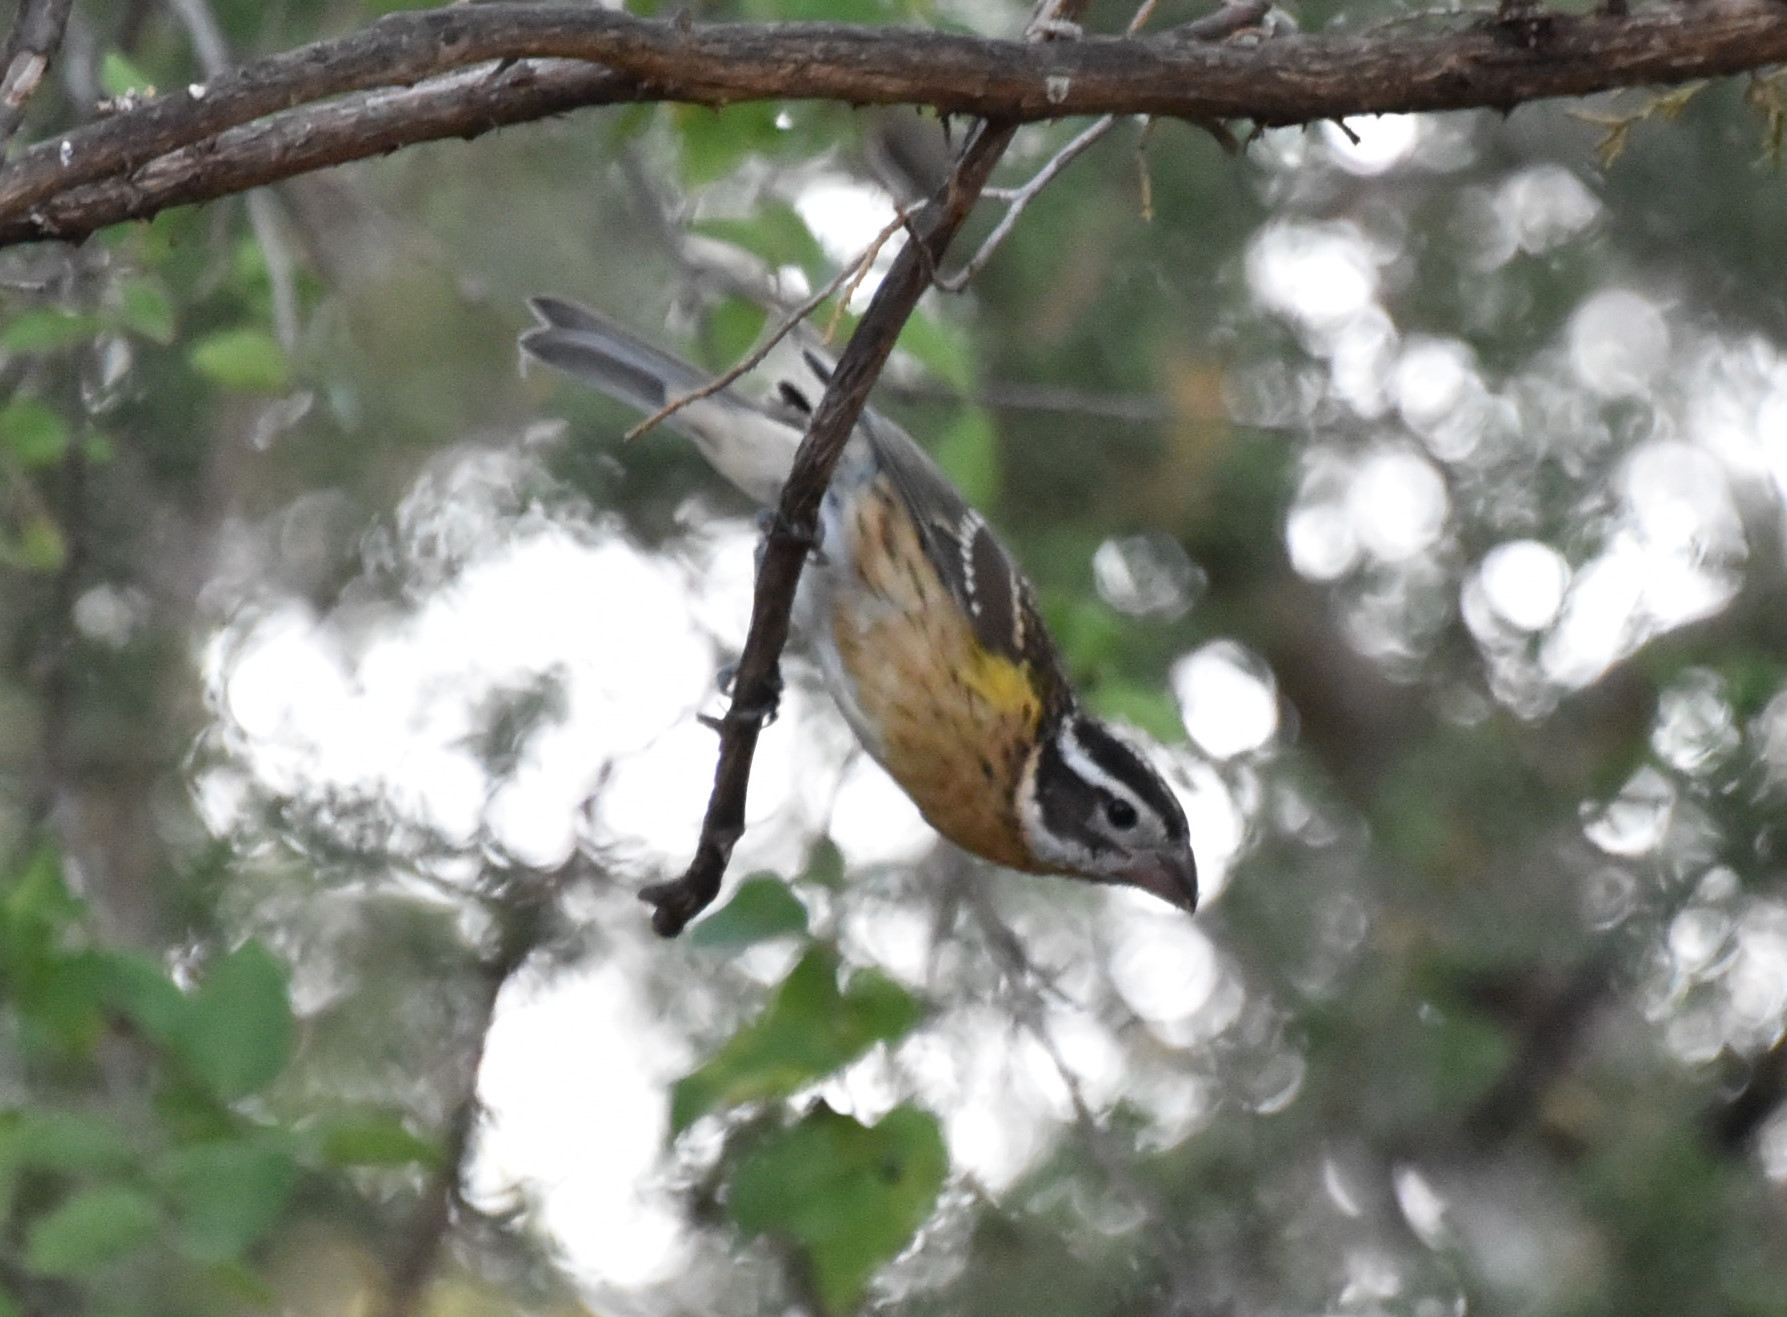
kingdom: Animalia
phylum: Chordata
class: Aves
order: Passeriformes
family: Cardinalidae
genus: Pheucticus
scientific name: Pheucticus melanocephalus
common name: Black-headed grosbeak
